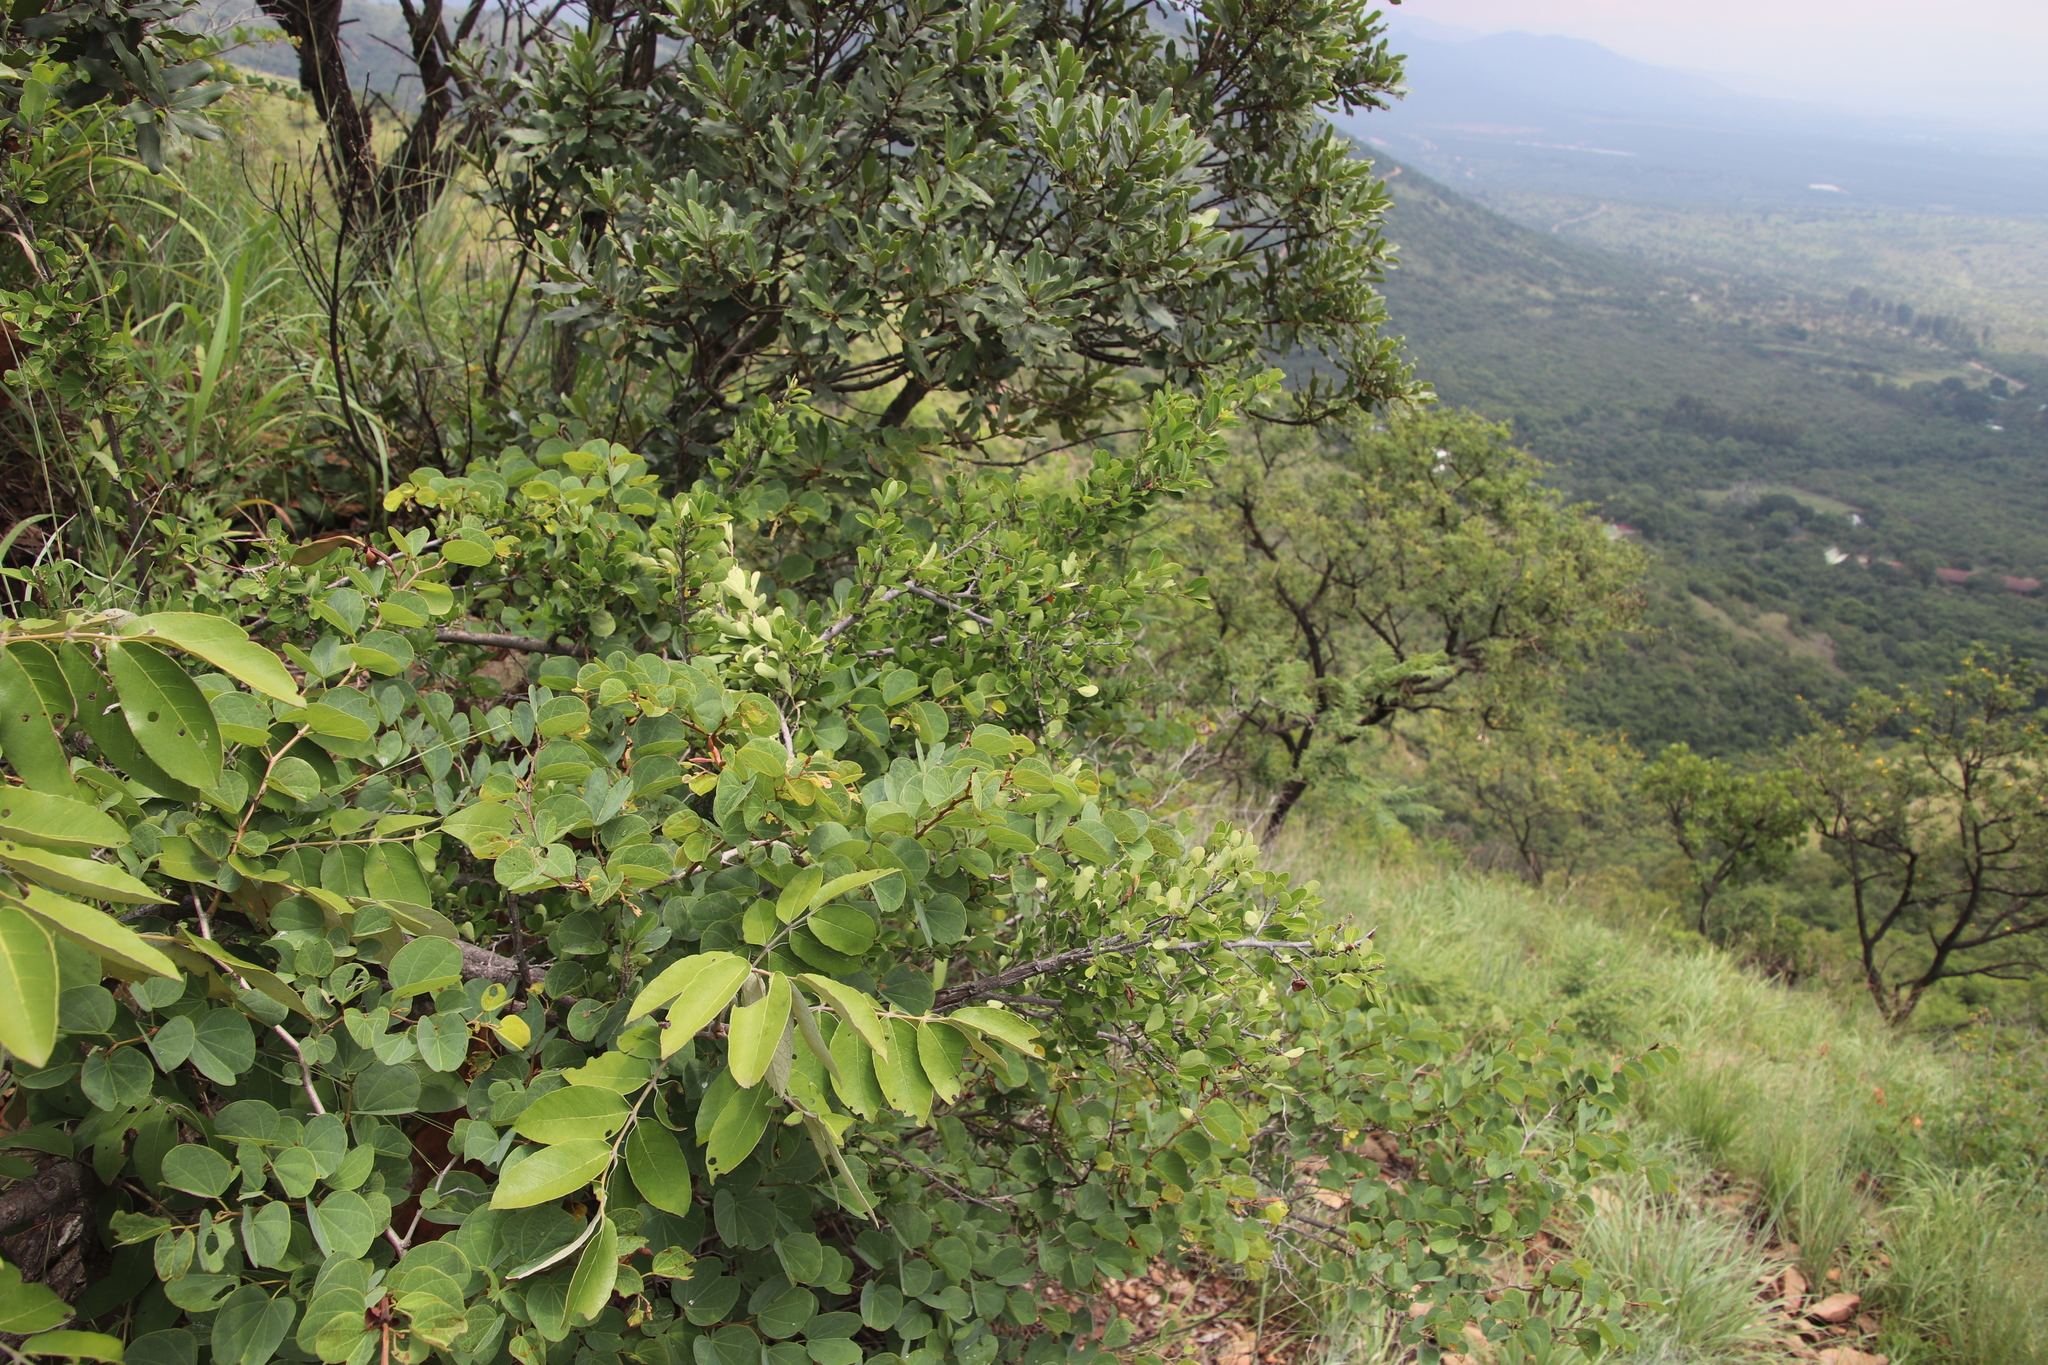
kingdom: Plantae
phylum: Tracheophyta
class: Magnoliopsida
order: Malpighiales
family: Erythroxylaceae
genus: Erythroxylum
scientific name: Erythroxylum delagoense
